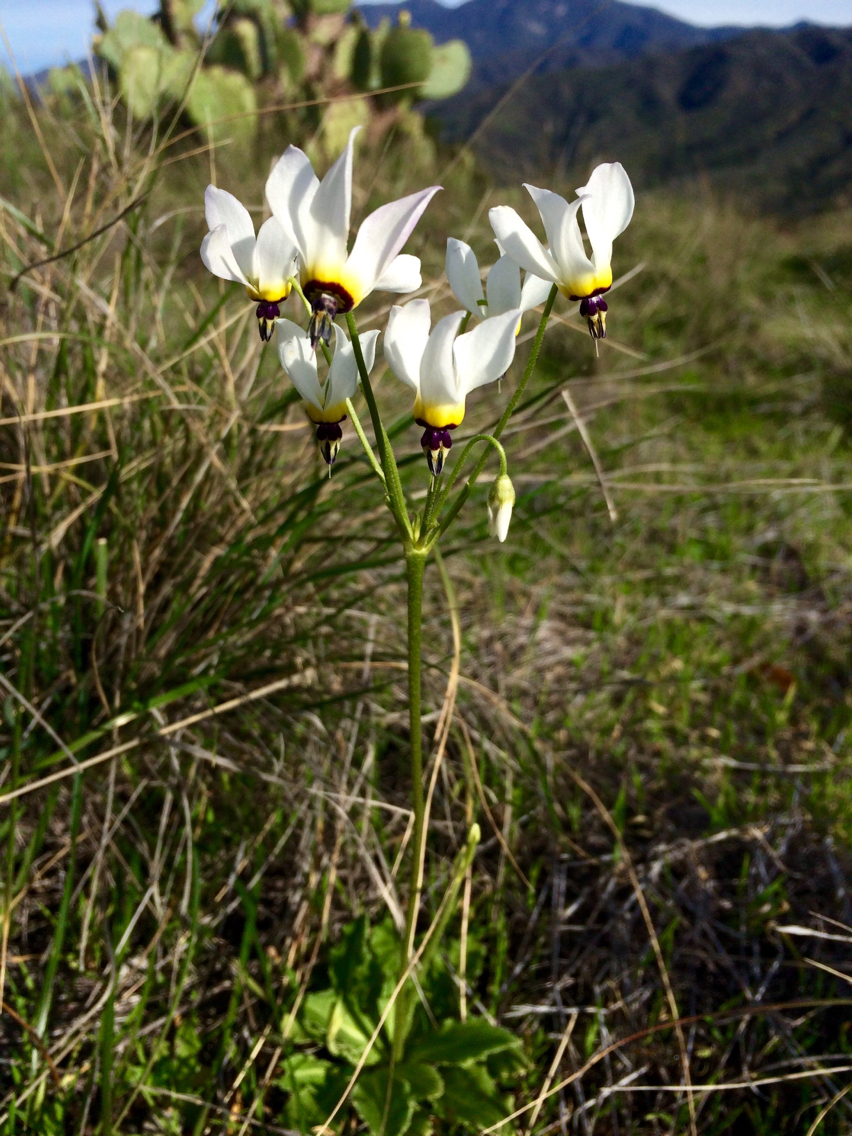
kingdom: Plantae
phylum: Tracheophyta
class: Magnoliopsida
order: Ericales
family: Primulaceae
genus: Dodecatheon
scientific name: Dodecatheon clevelandii
